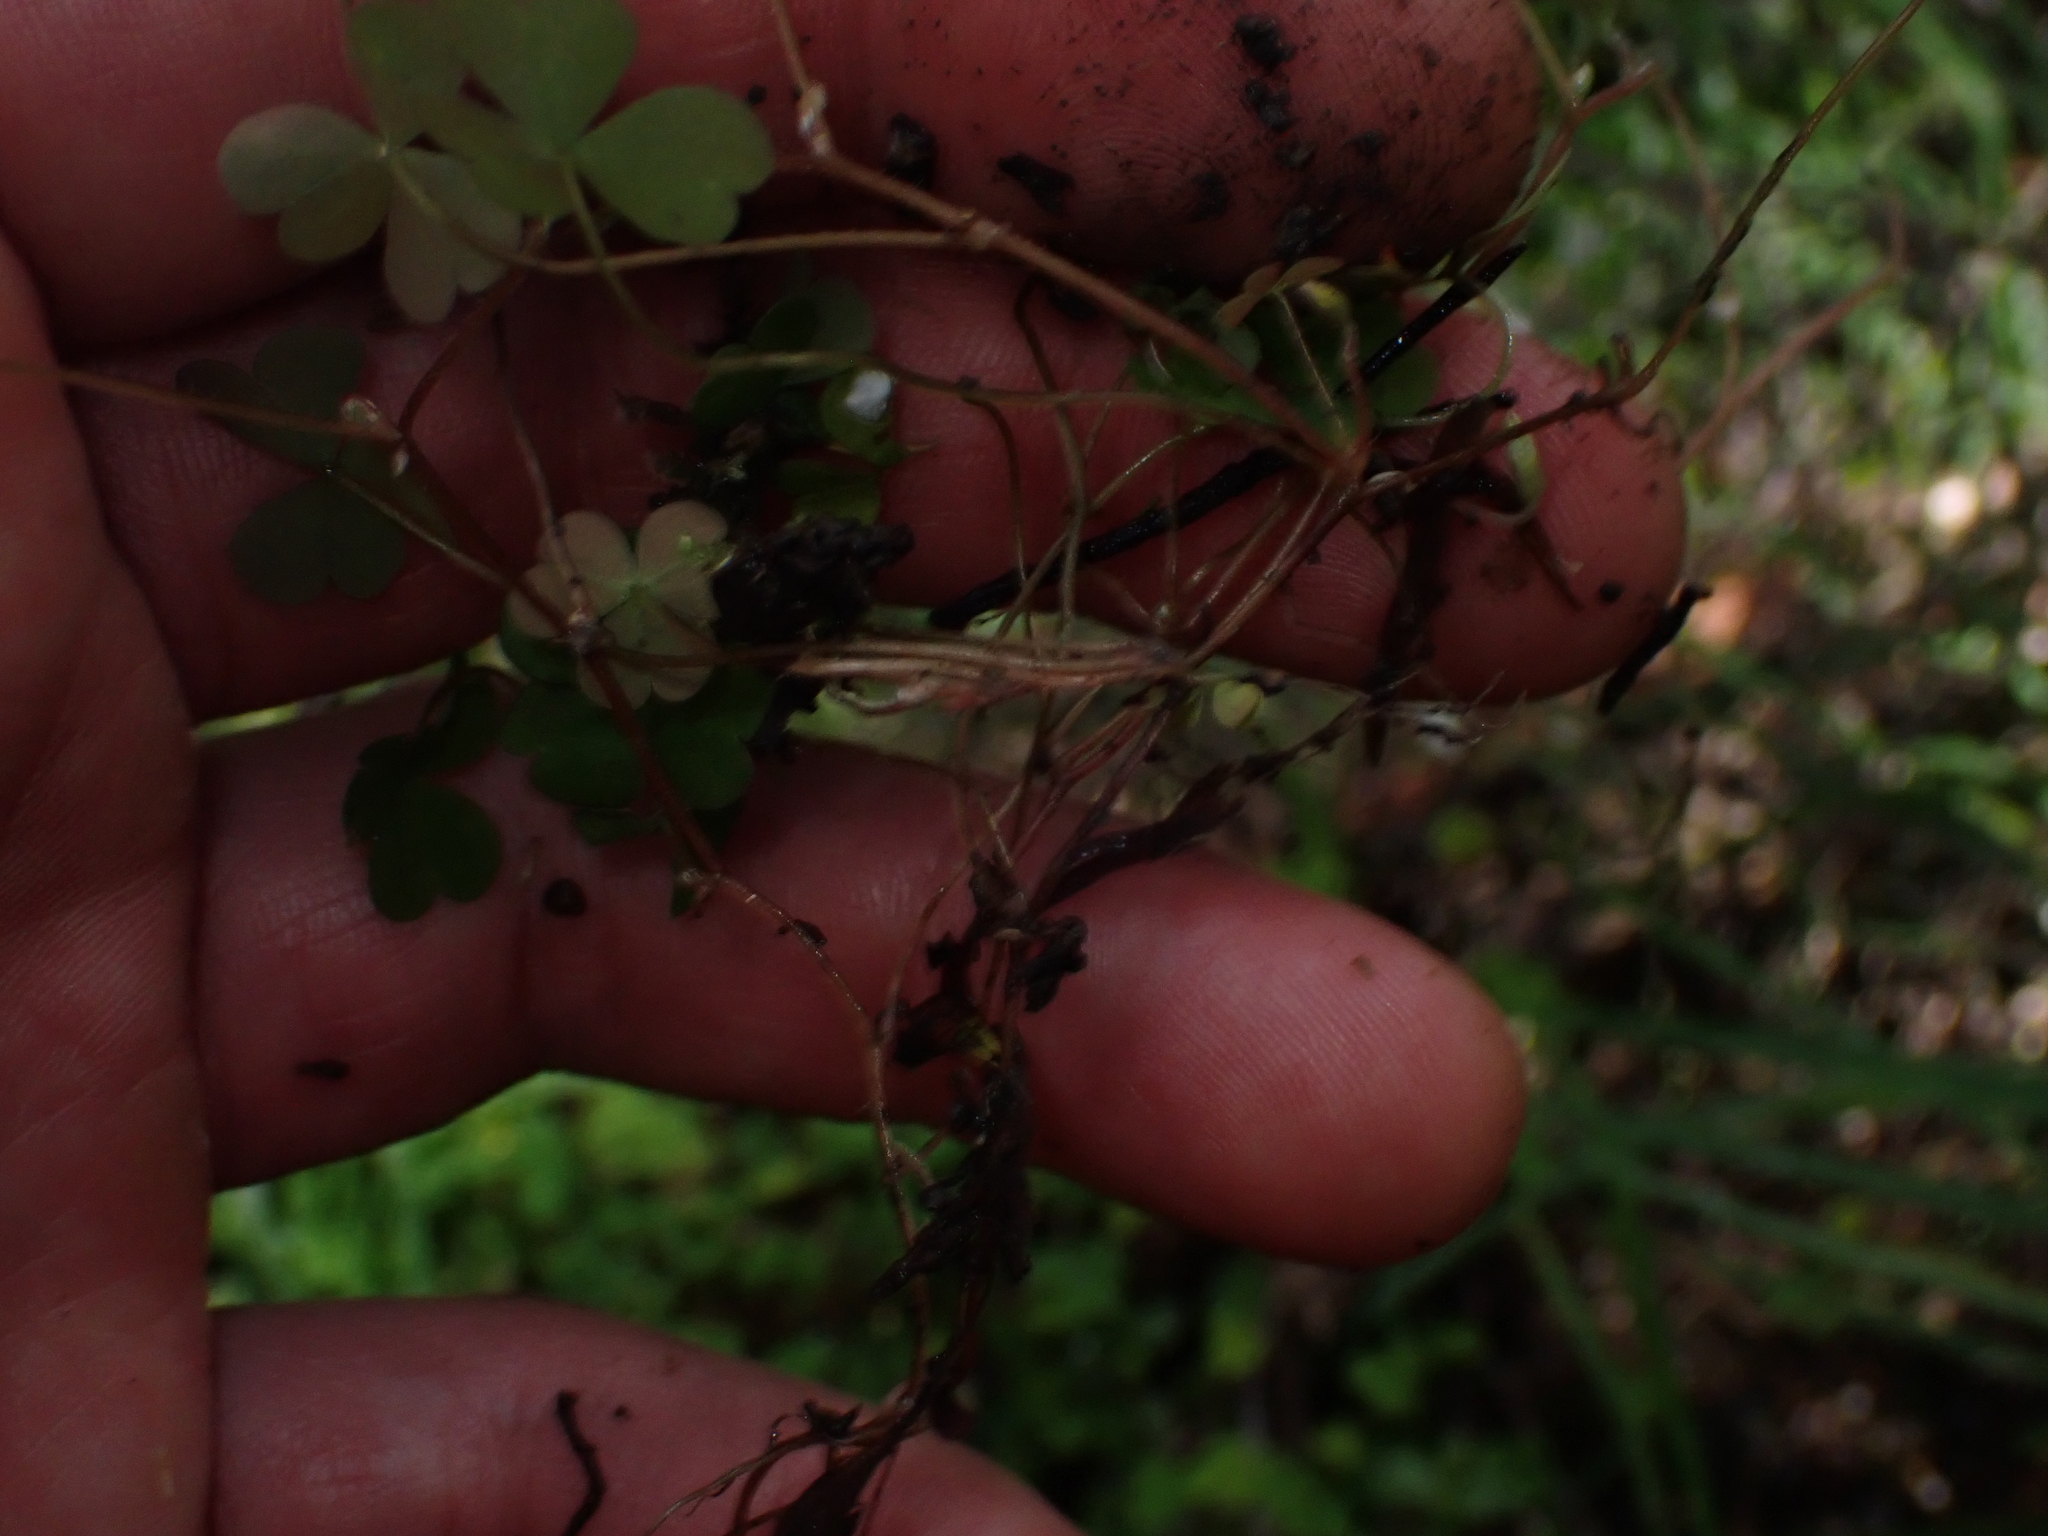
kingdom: Plantae
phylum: Tracheophyta
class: Magnoliopsida
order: Oxalidales
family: Oxalidaceae
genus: Oxalis
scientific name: Oxalis exilis
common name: Least yellow-sorrel
